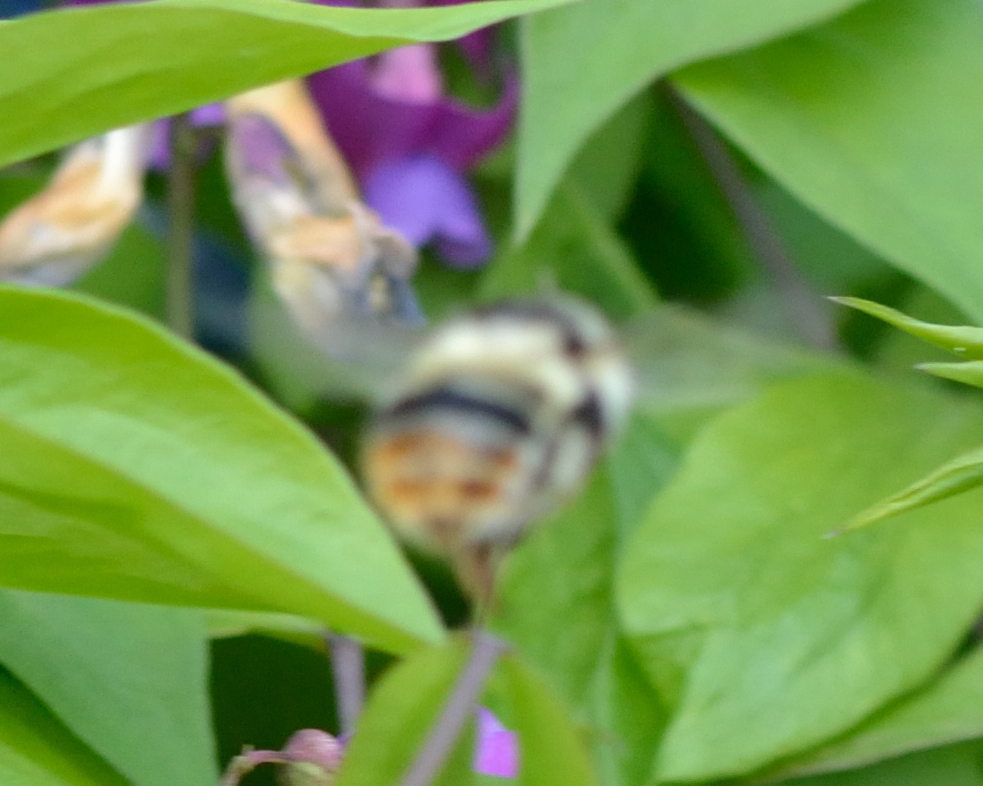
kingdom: Animalia
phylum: Arthropoda
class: Insecta
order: Hymenoptera
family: Apidae
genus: Bombus
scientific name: Bombus sylvarum
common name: Shrill carder bee
